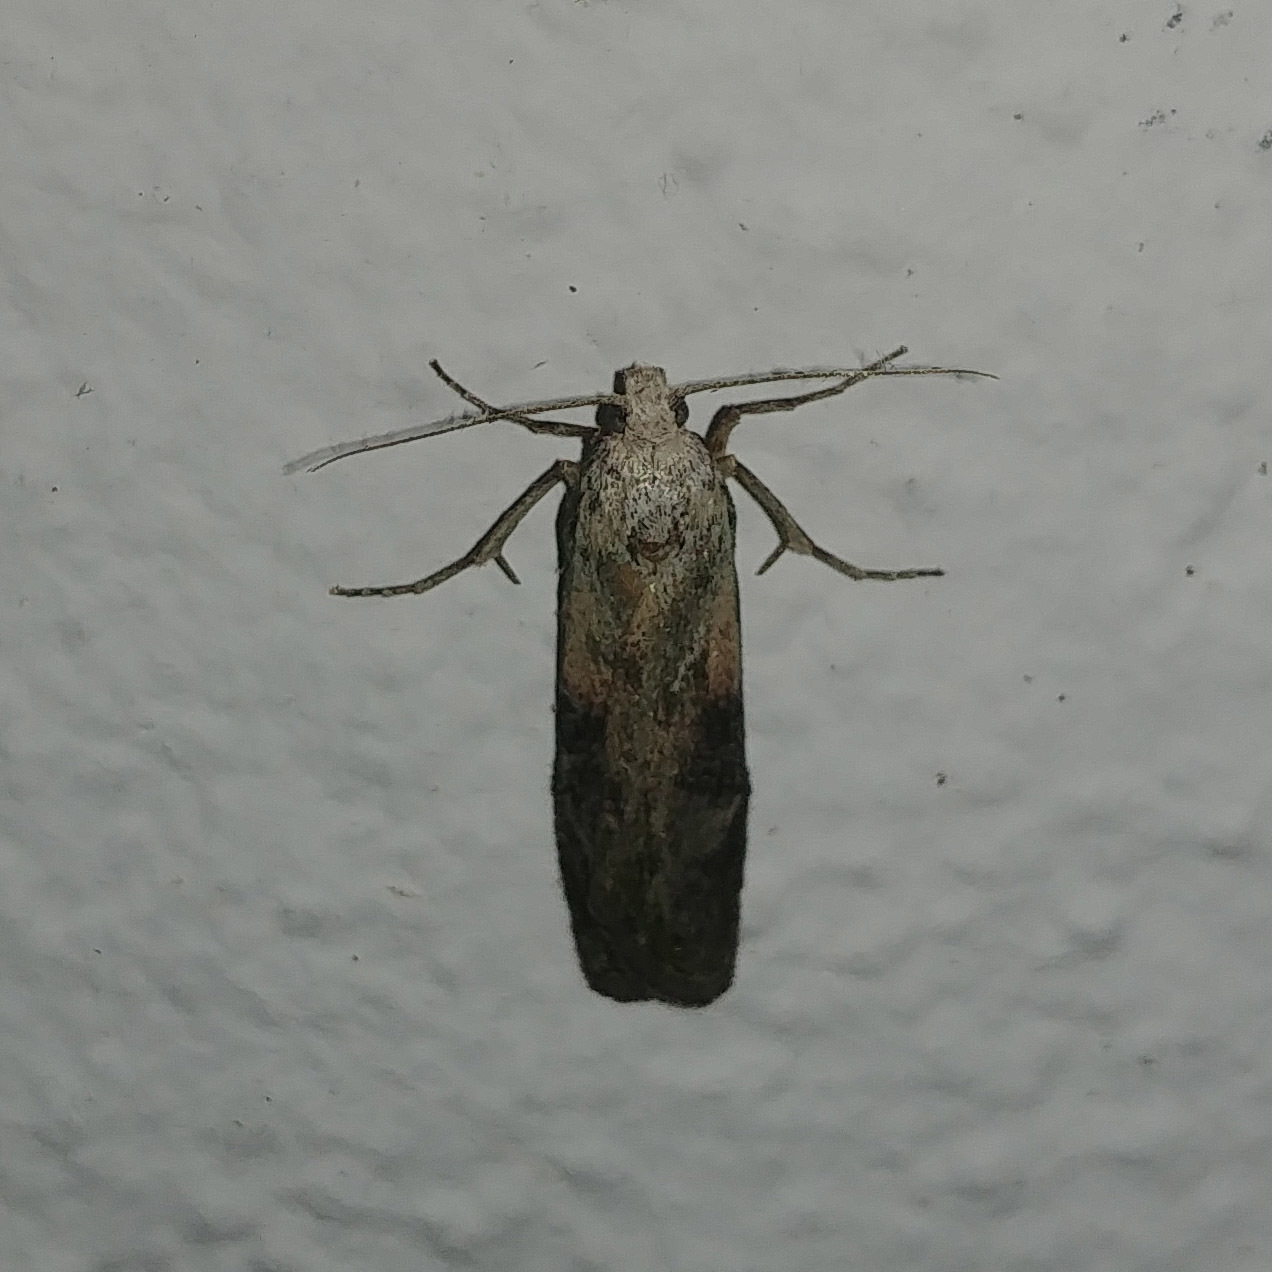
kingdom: Animalia
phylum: Arthropoda
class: Insecta
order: Lepidoptera
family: Pyralidae
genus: Aphomia
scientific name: Aphomia sociella
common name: Bee moth
